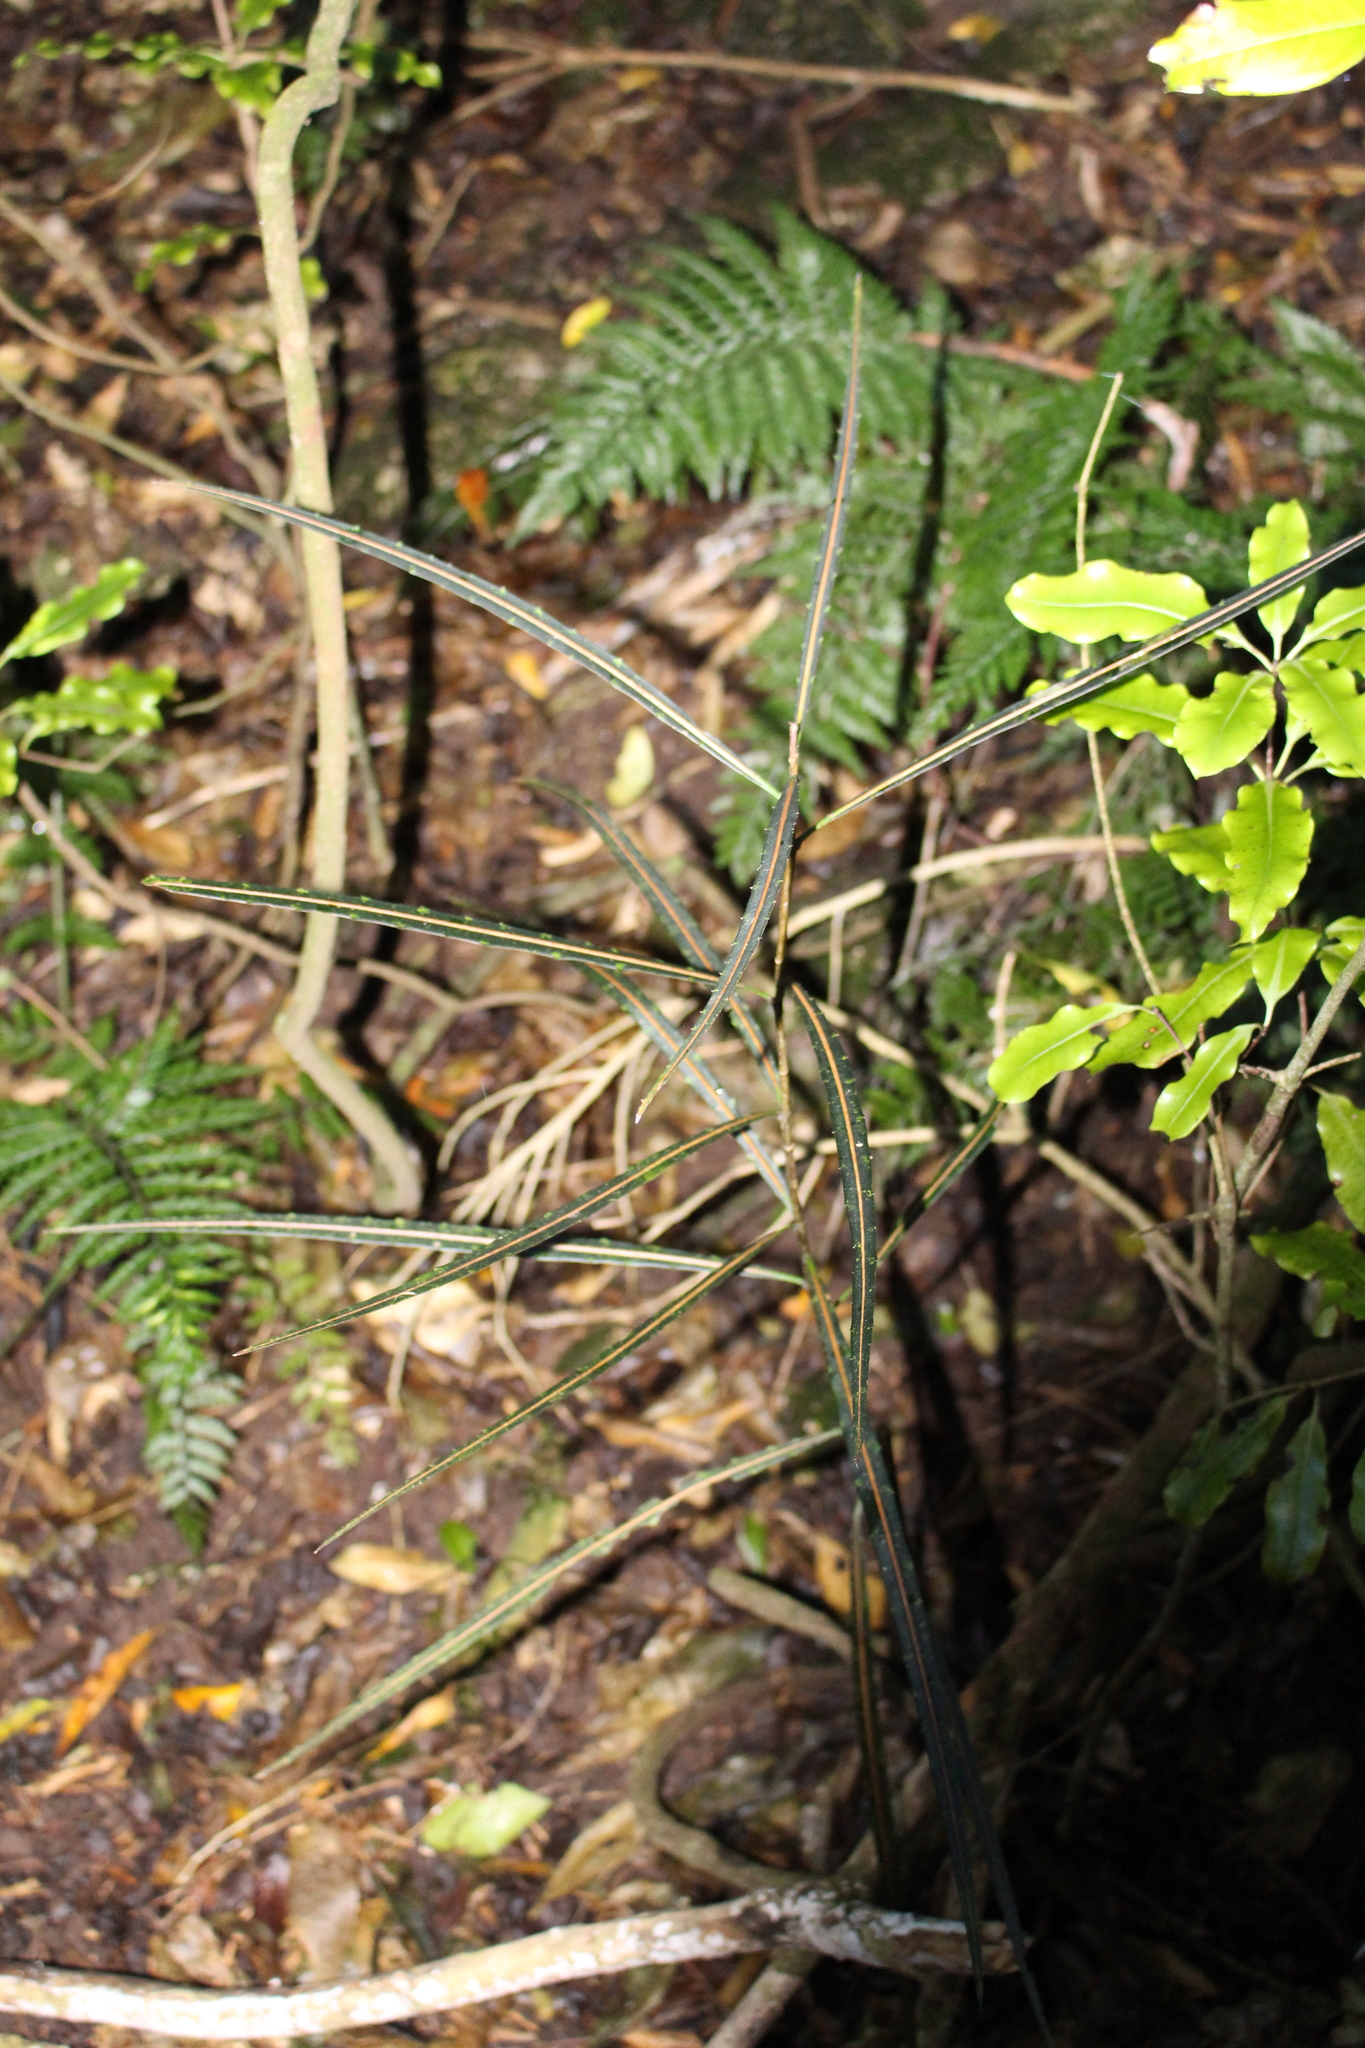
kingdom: Plantae
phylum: Tracheophyta
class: Magnoliopsida
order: Apiales
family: Araliaceae
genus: Pseudopanax
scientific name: Pseudopanax crassifolius
